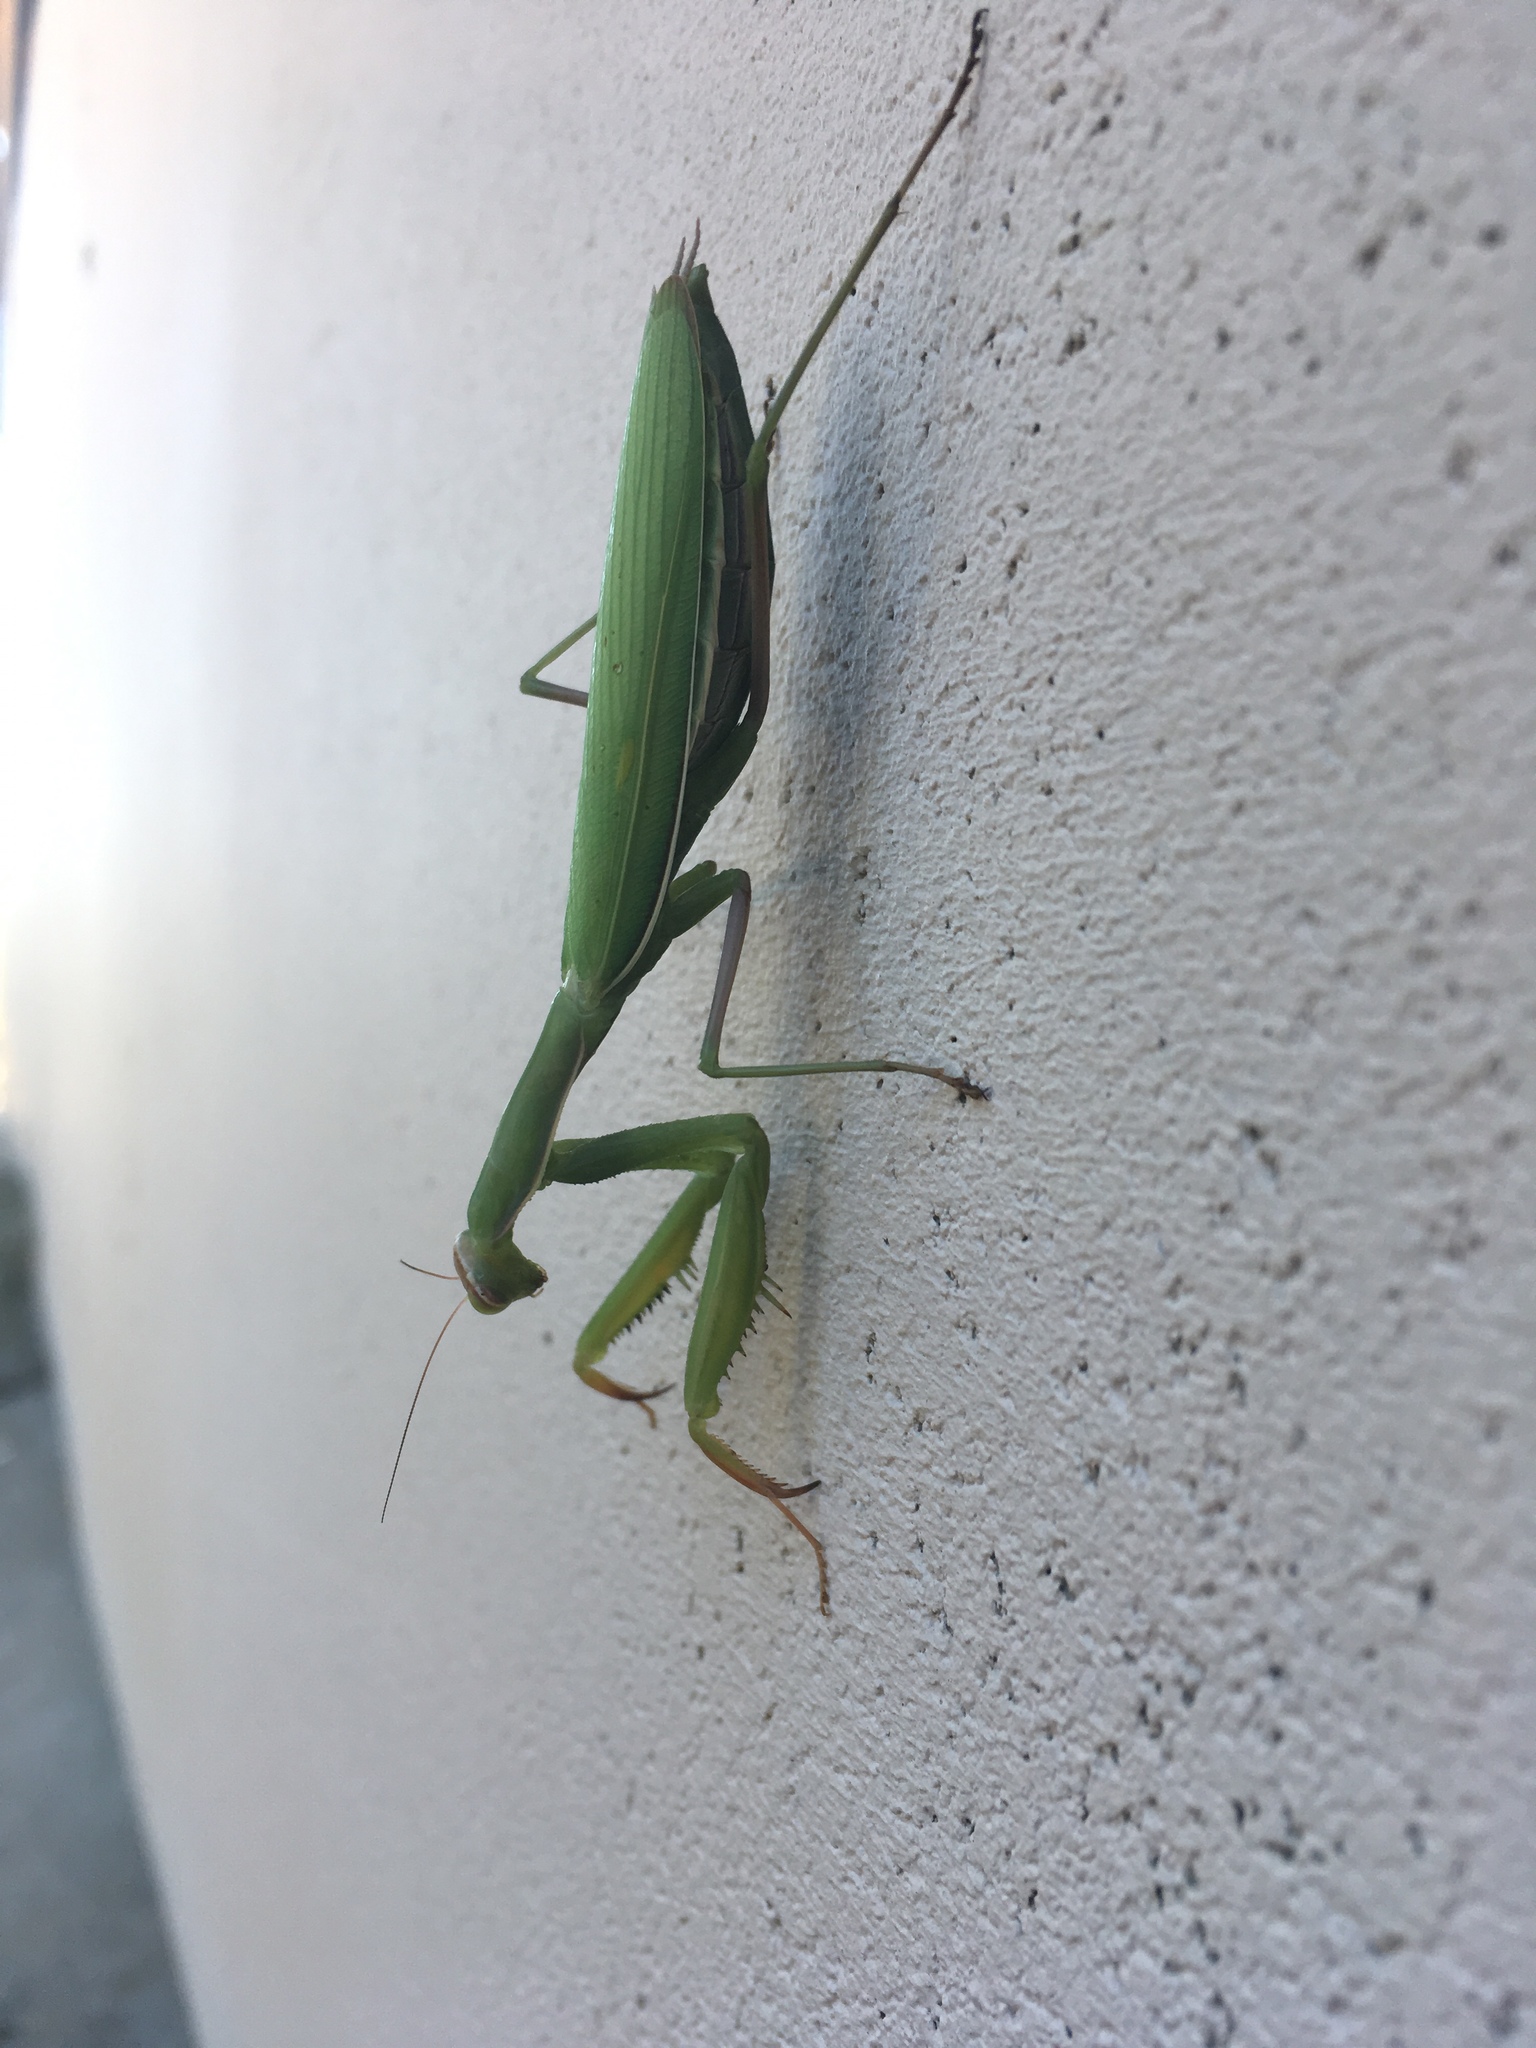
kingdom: Animalia
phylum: Arthropoda
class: Insecta
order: Mantodea
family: Mantidae
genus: Mantis
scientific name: Mantis religiosa
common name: Praying mantis
